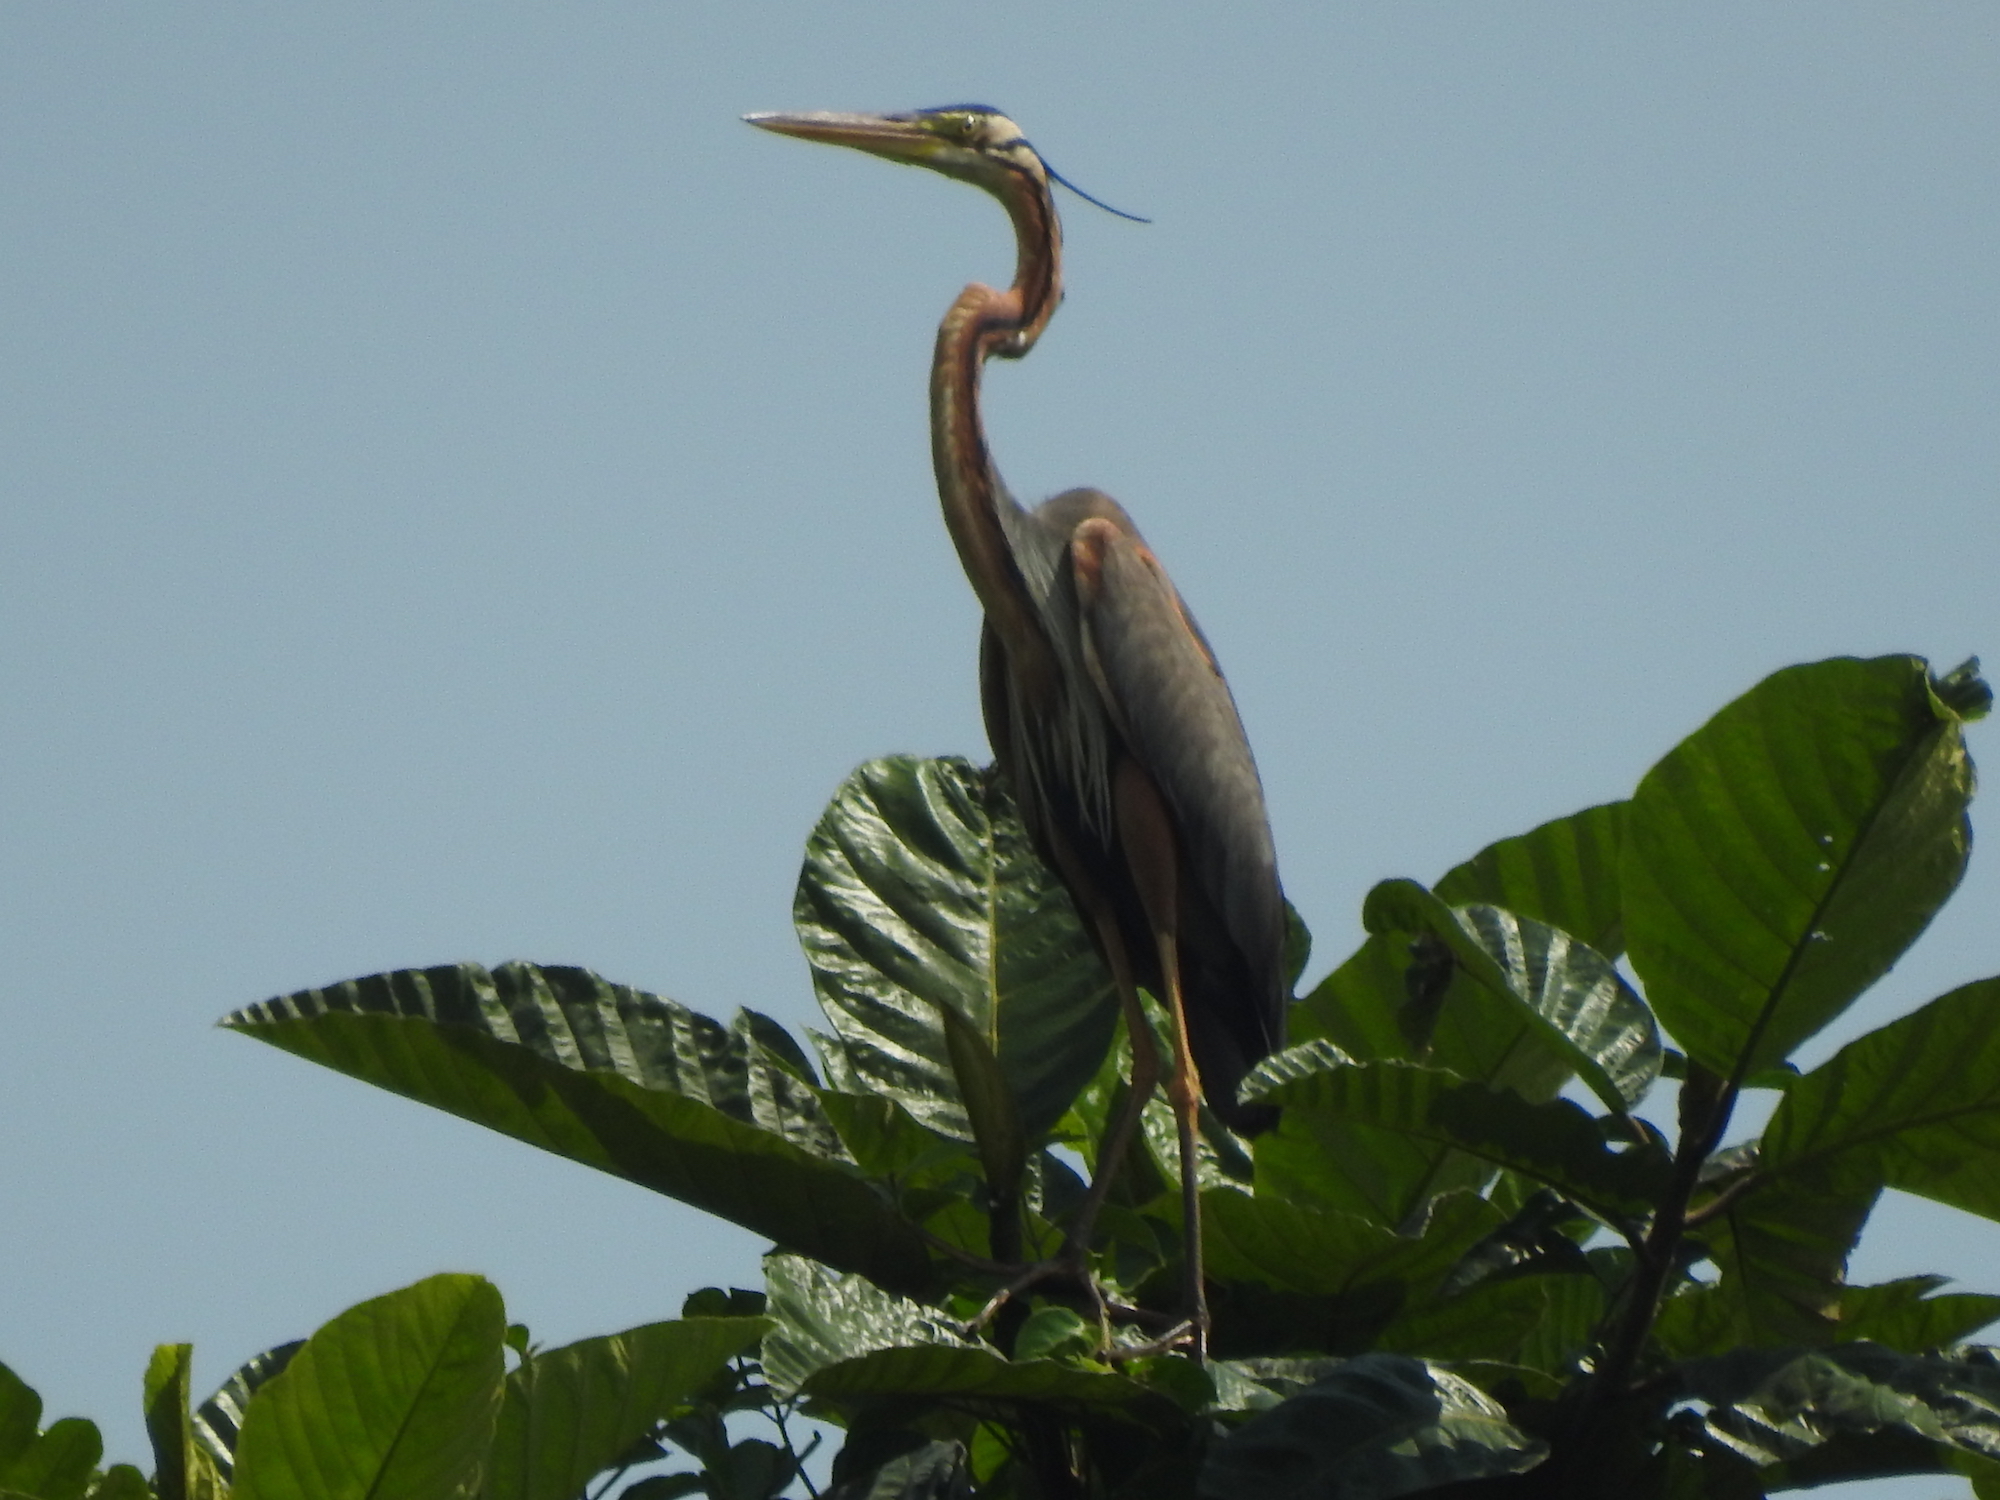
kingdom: Animalia
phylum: Chordata
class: Aves
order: Pelecaniformes
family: Ardeidae
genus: Ardea
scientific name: Ardea purpurea
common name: Purple heron
